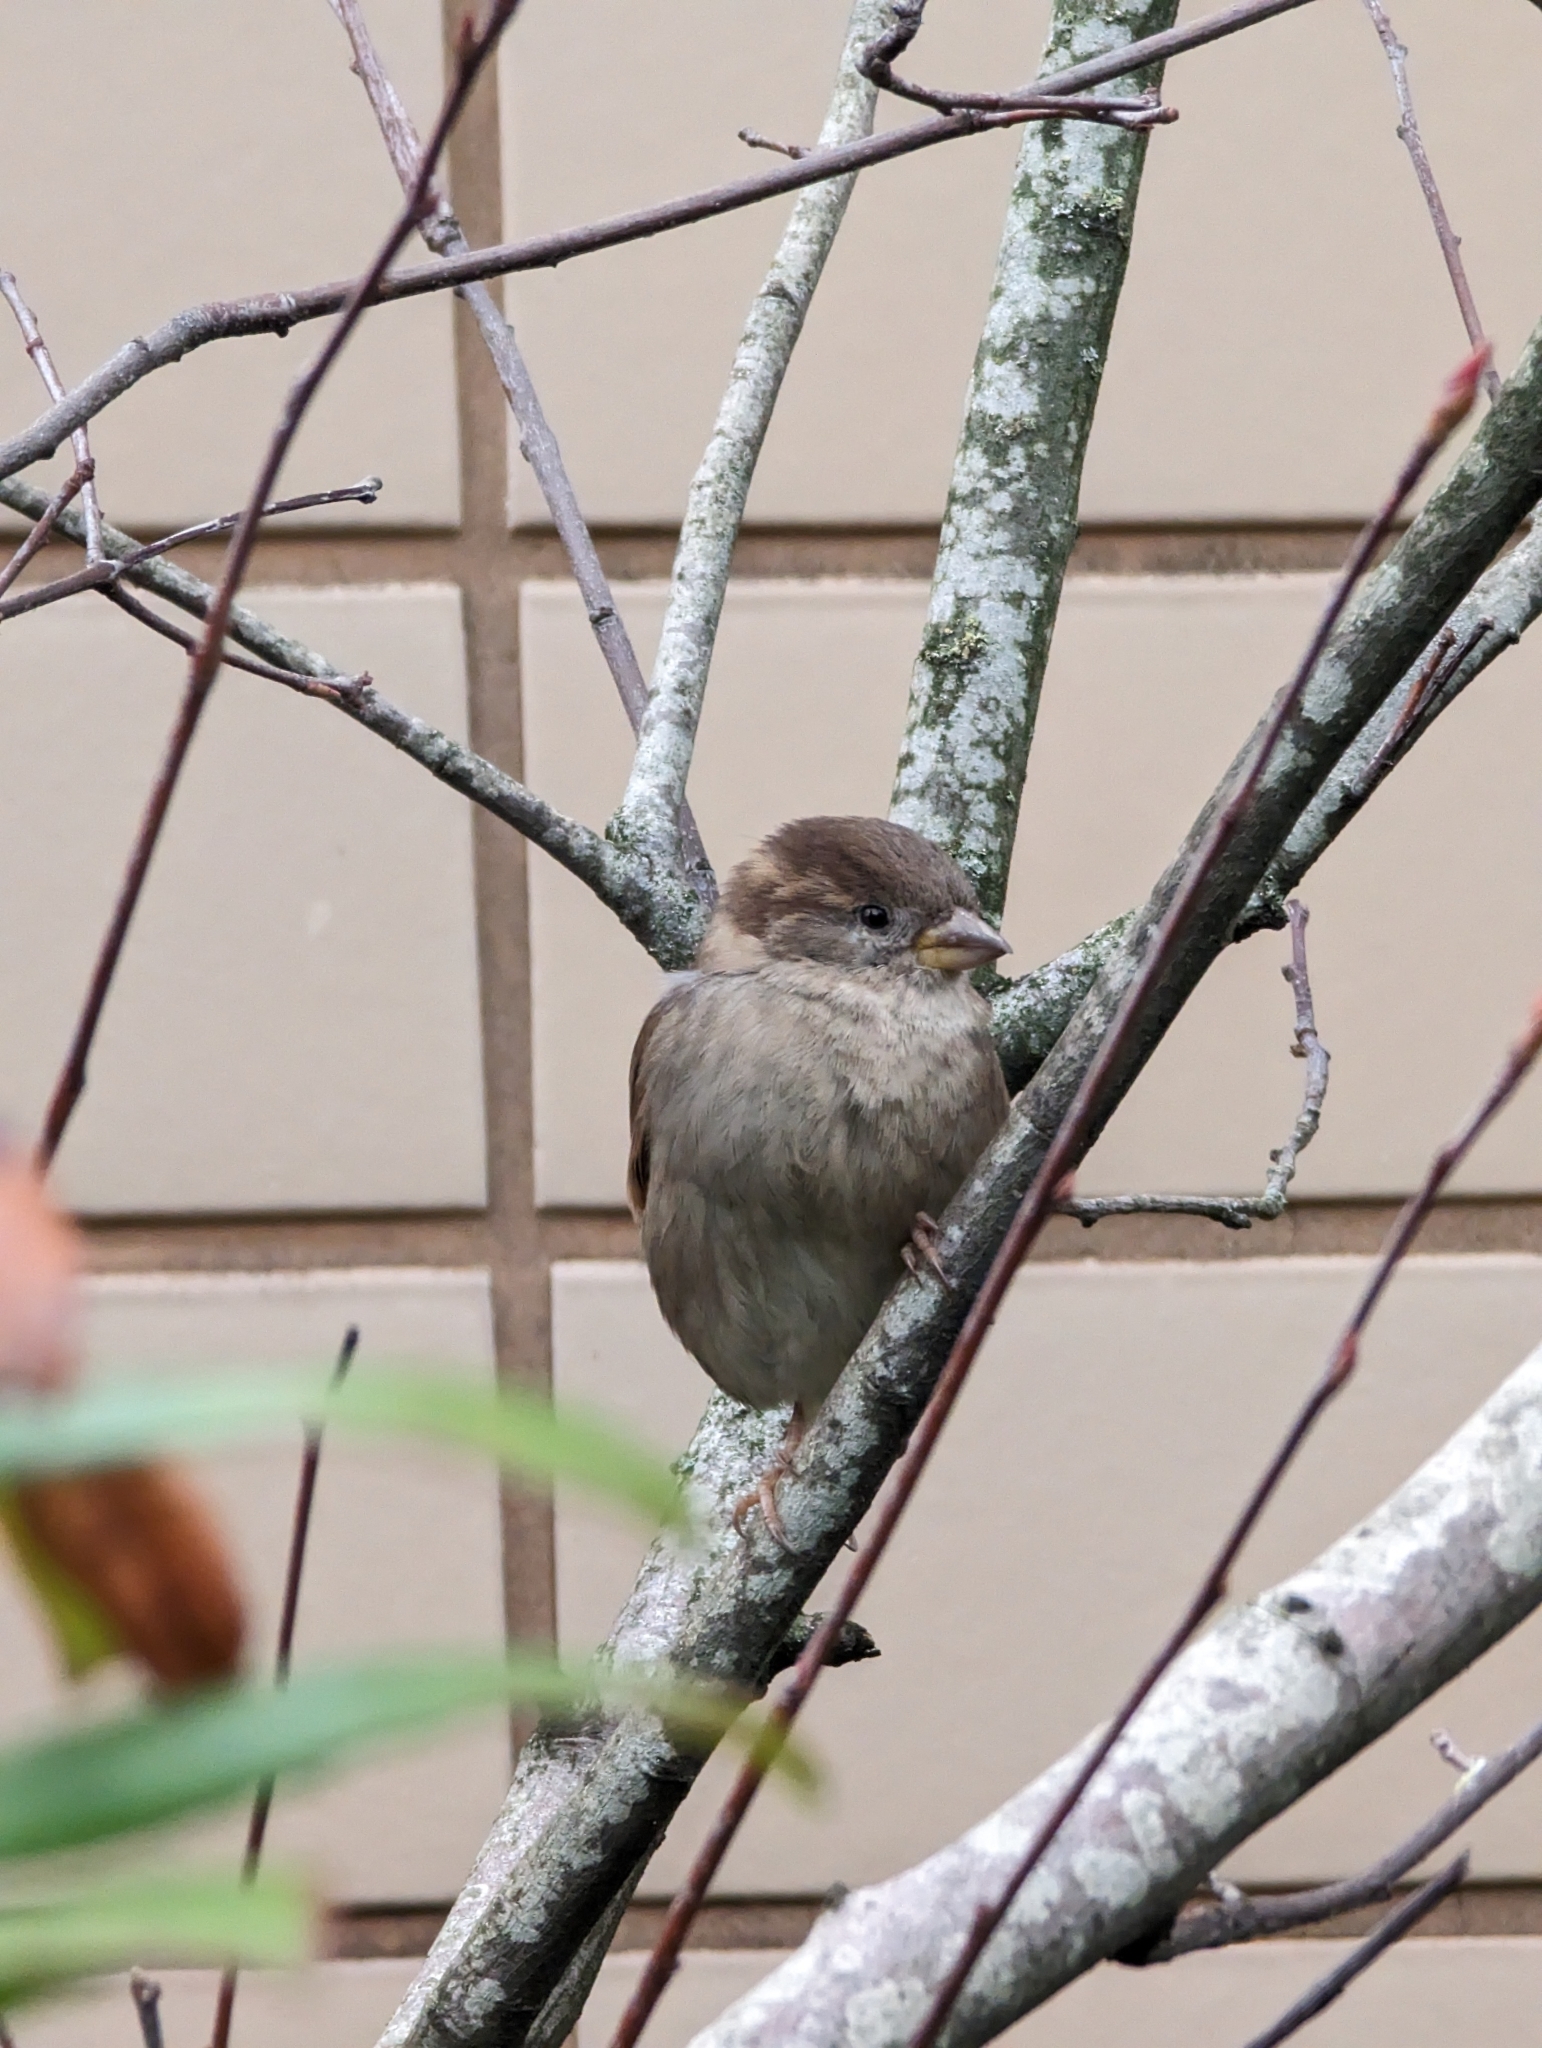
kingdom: Animalia
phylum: Chordata
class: Aves
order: Passeriformes
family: Passeridae
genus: Passer
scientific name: Passer domesticus
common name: House sparrow
